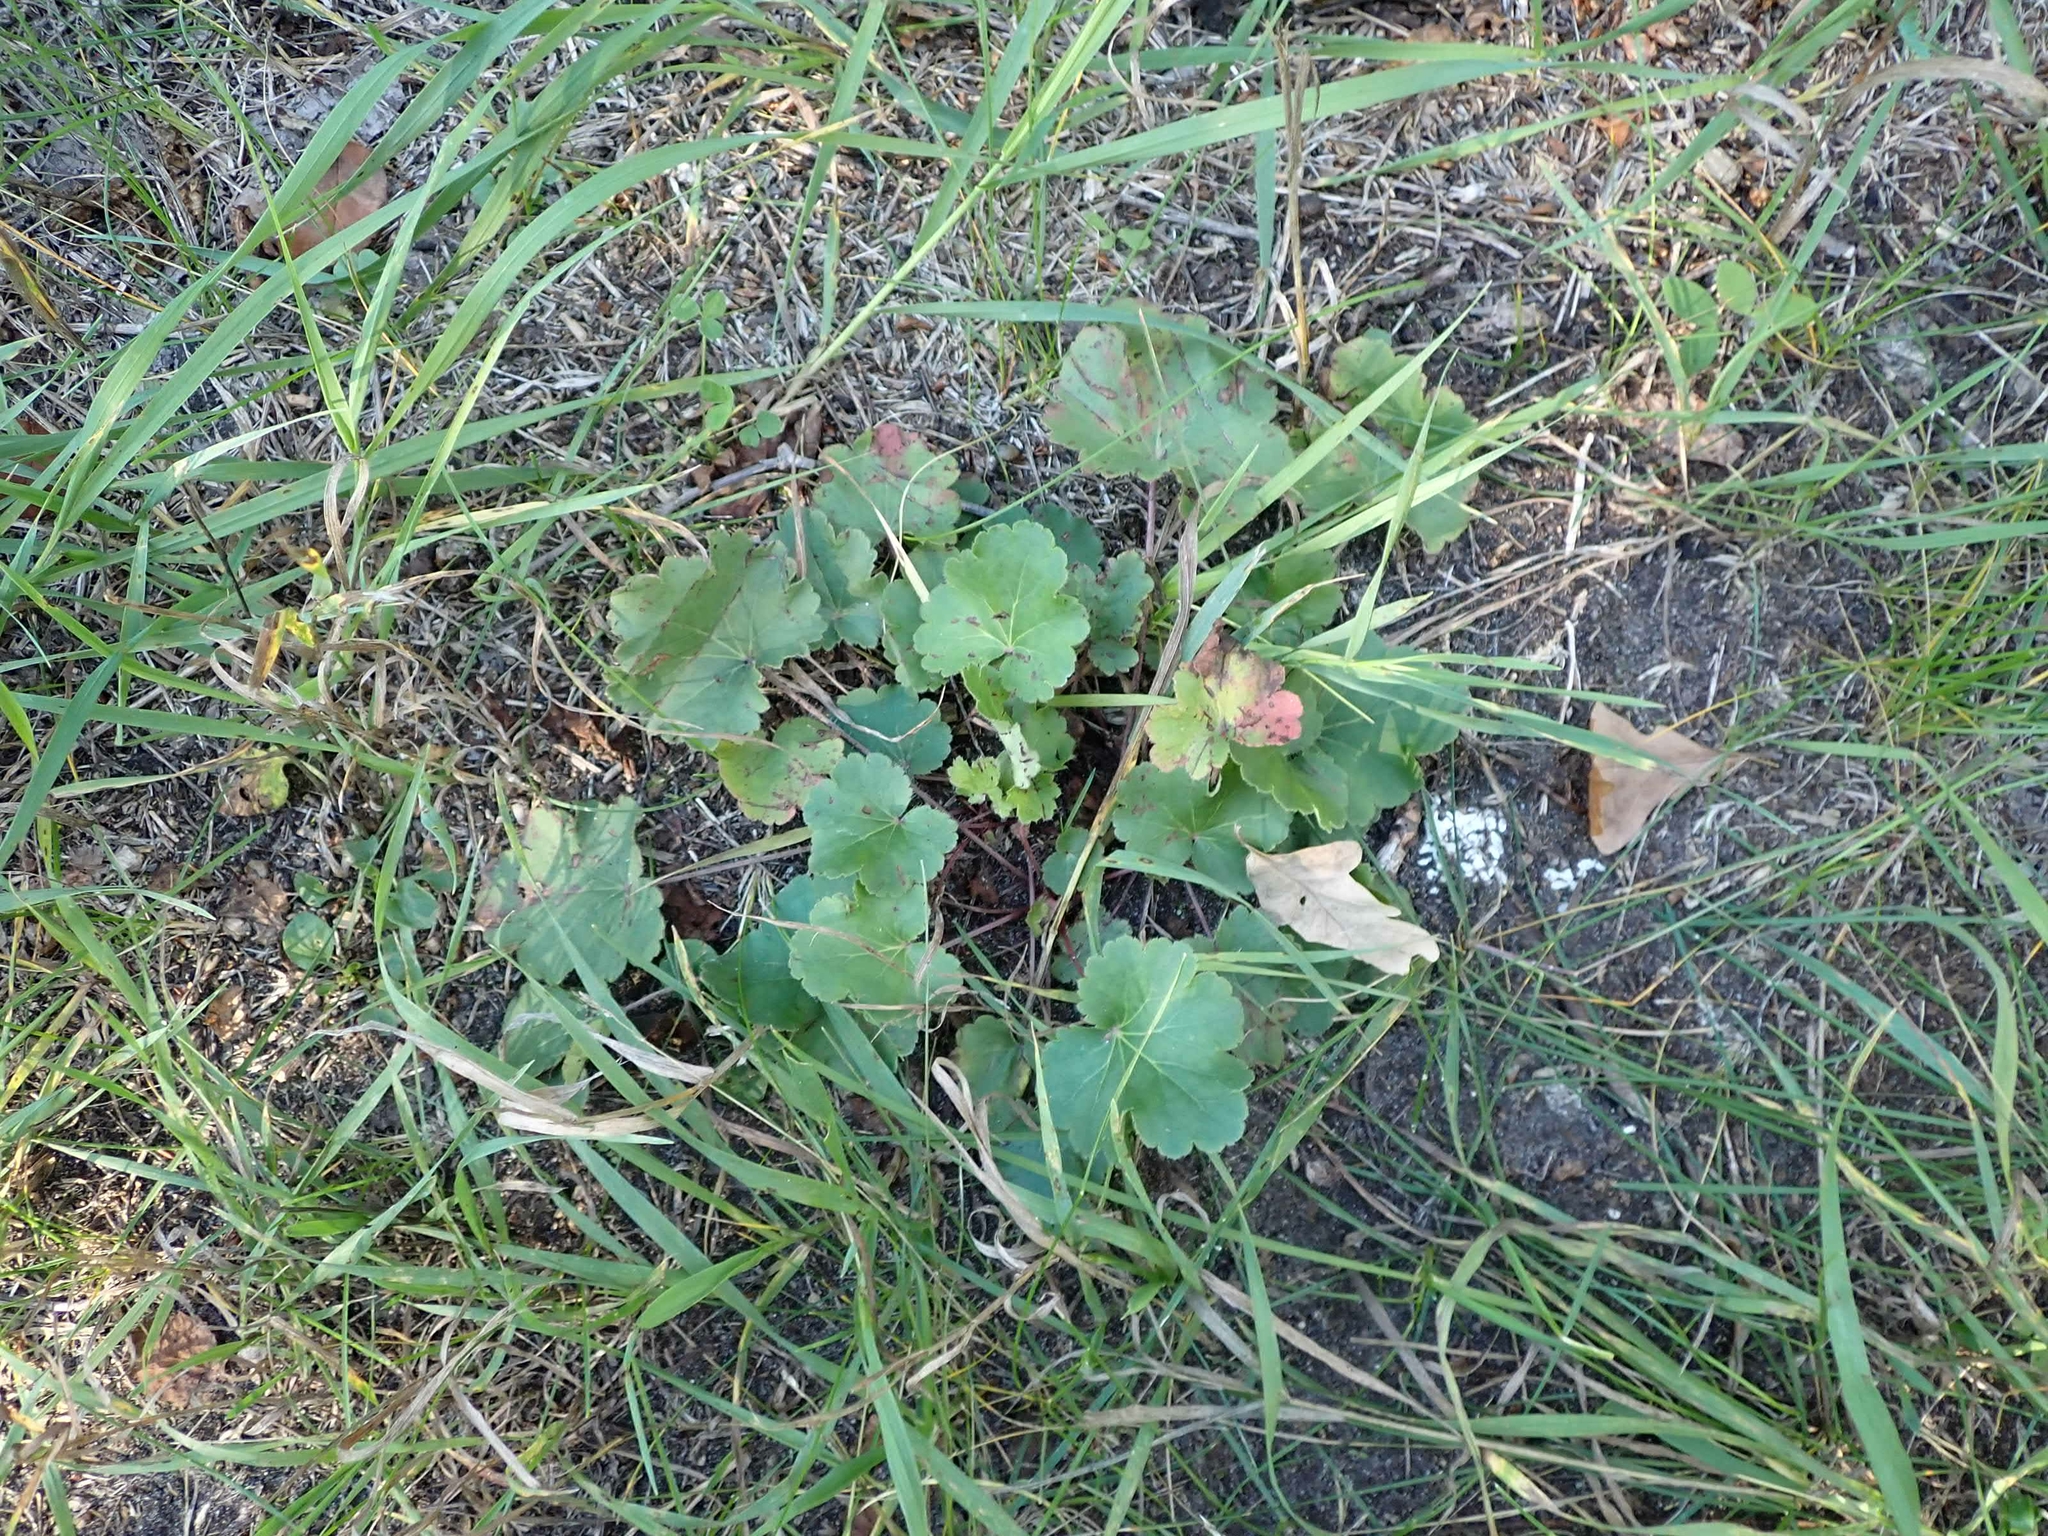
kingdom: Plantae
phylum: Tracheophyta
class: Magnoliopsida
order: Saxifragales
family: Saxifragaceae
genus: Heuchera
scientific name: Heuchera richardsonii
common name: Richardson's alumroot
